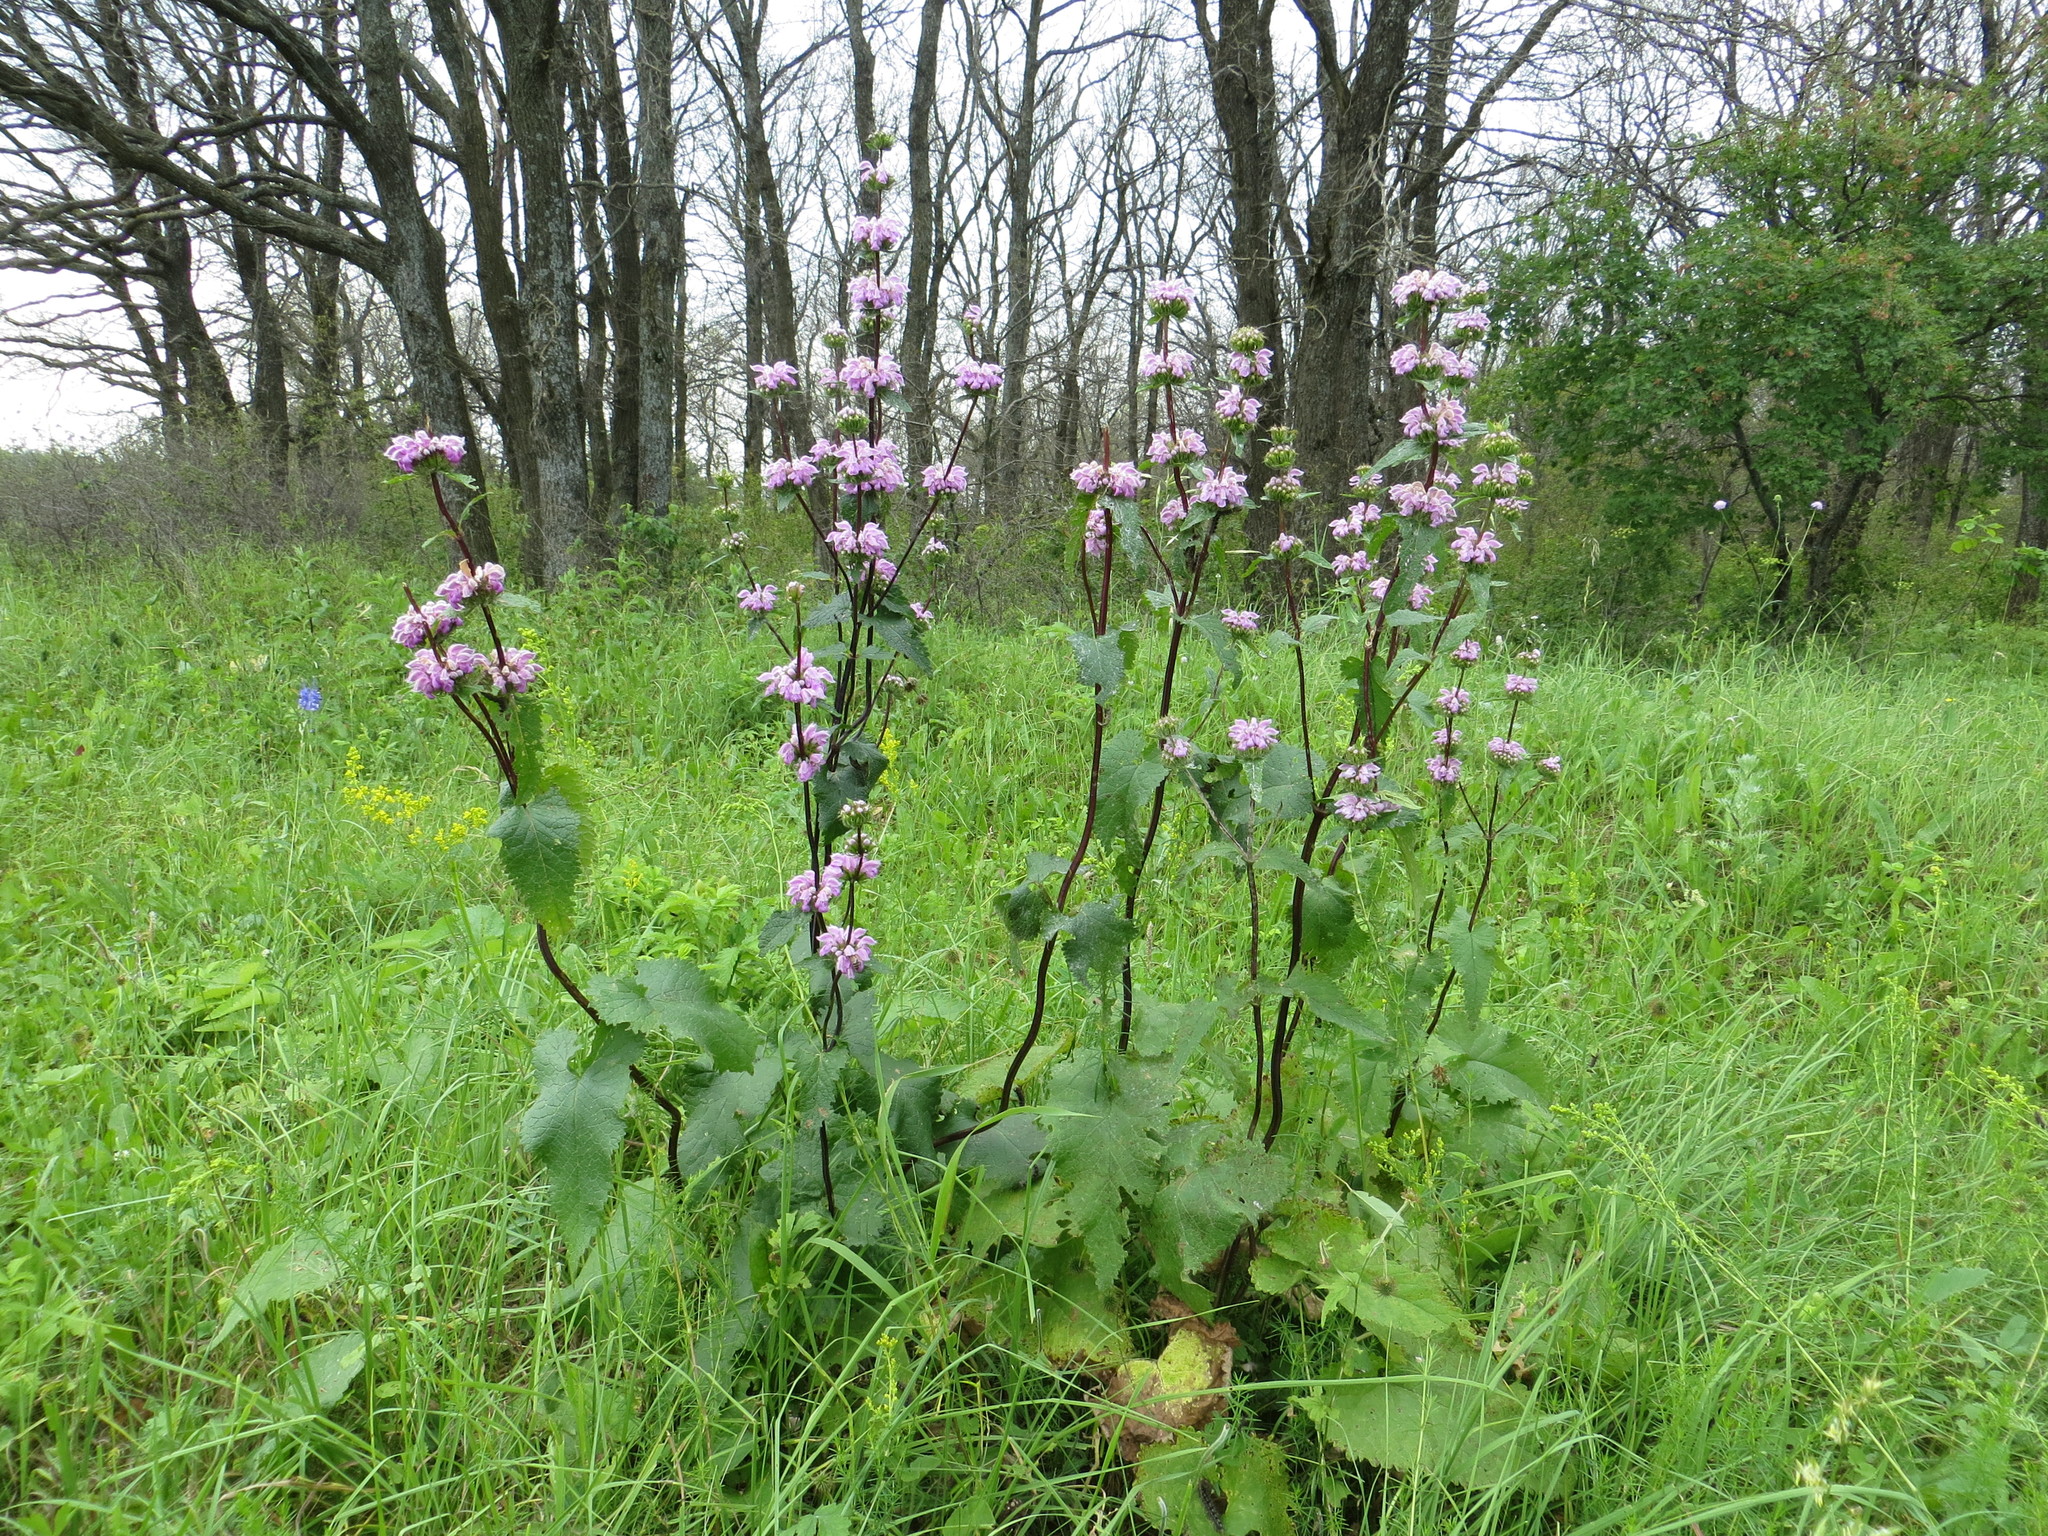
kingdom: Plantae
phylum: Tracheophyta
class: Magnoliopsida
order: Lamiales
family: Lamiaceae
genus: Phlomoides
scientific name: Phlomoides tuberosa
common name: Tuberous jerusalem sage
